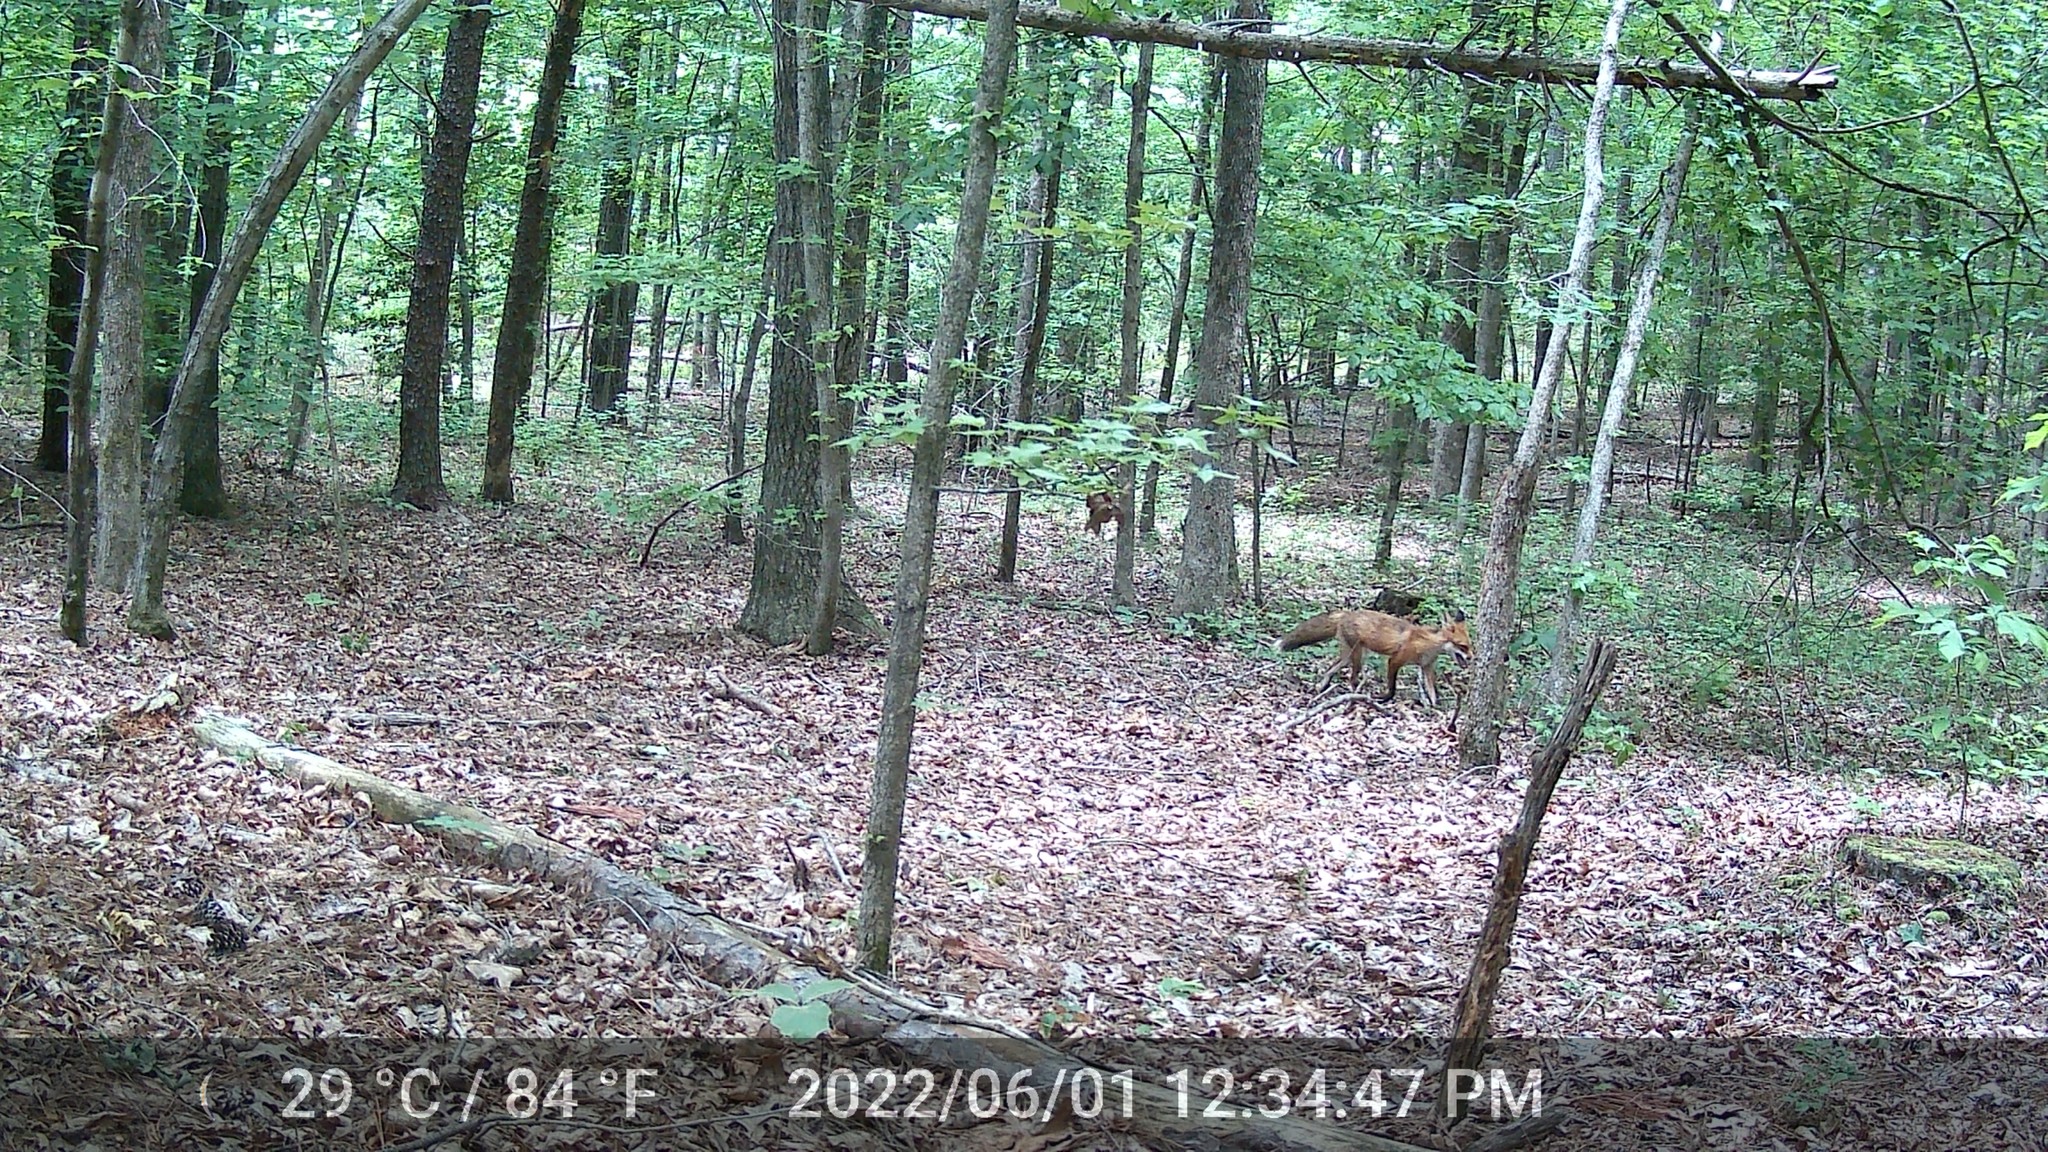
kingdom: Animalia
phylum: Chordata
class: Mammalia
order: Carnivora
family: Canidae
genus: Vulpes
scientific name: Vulpes vulpes
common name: Red fox
